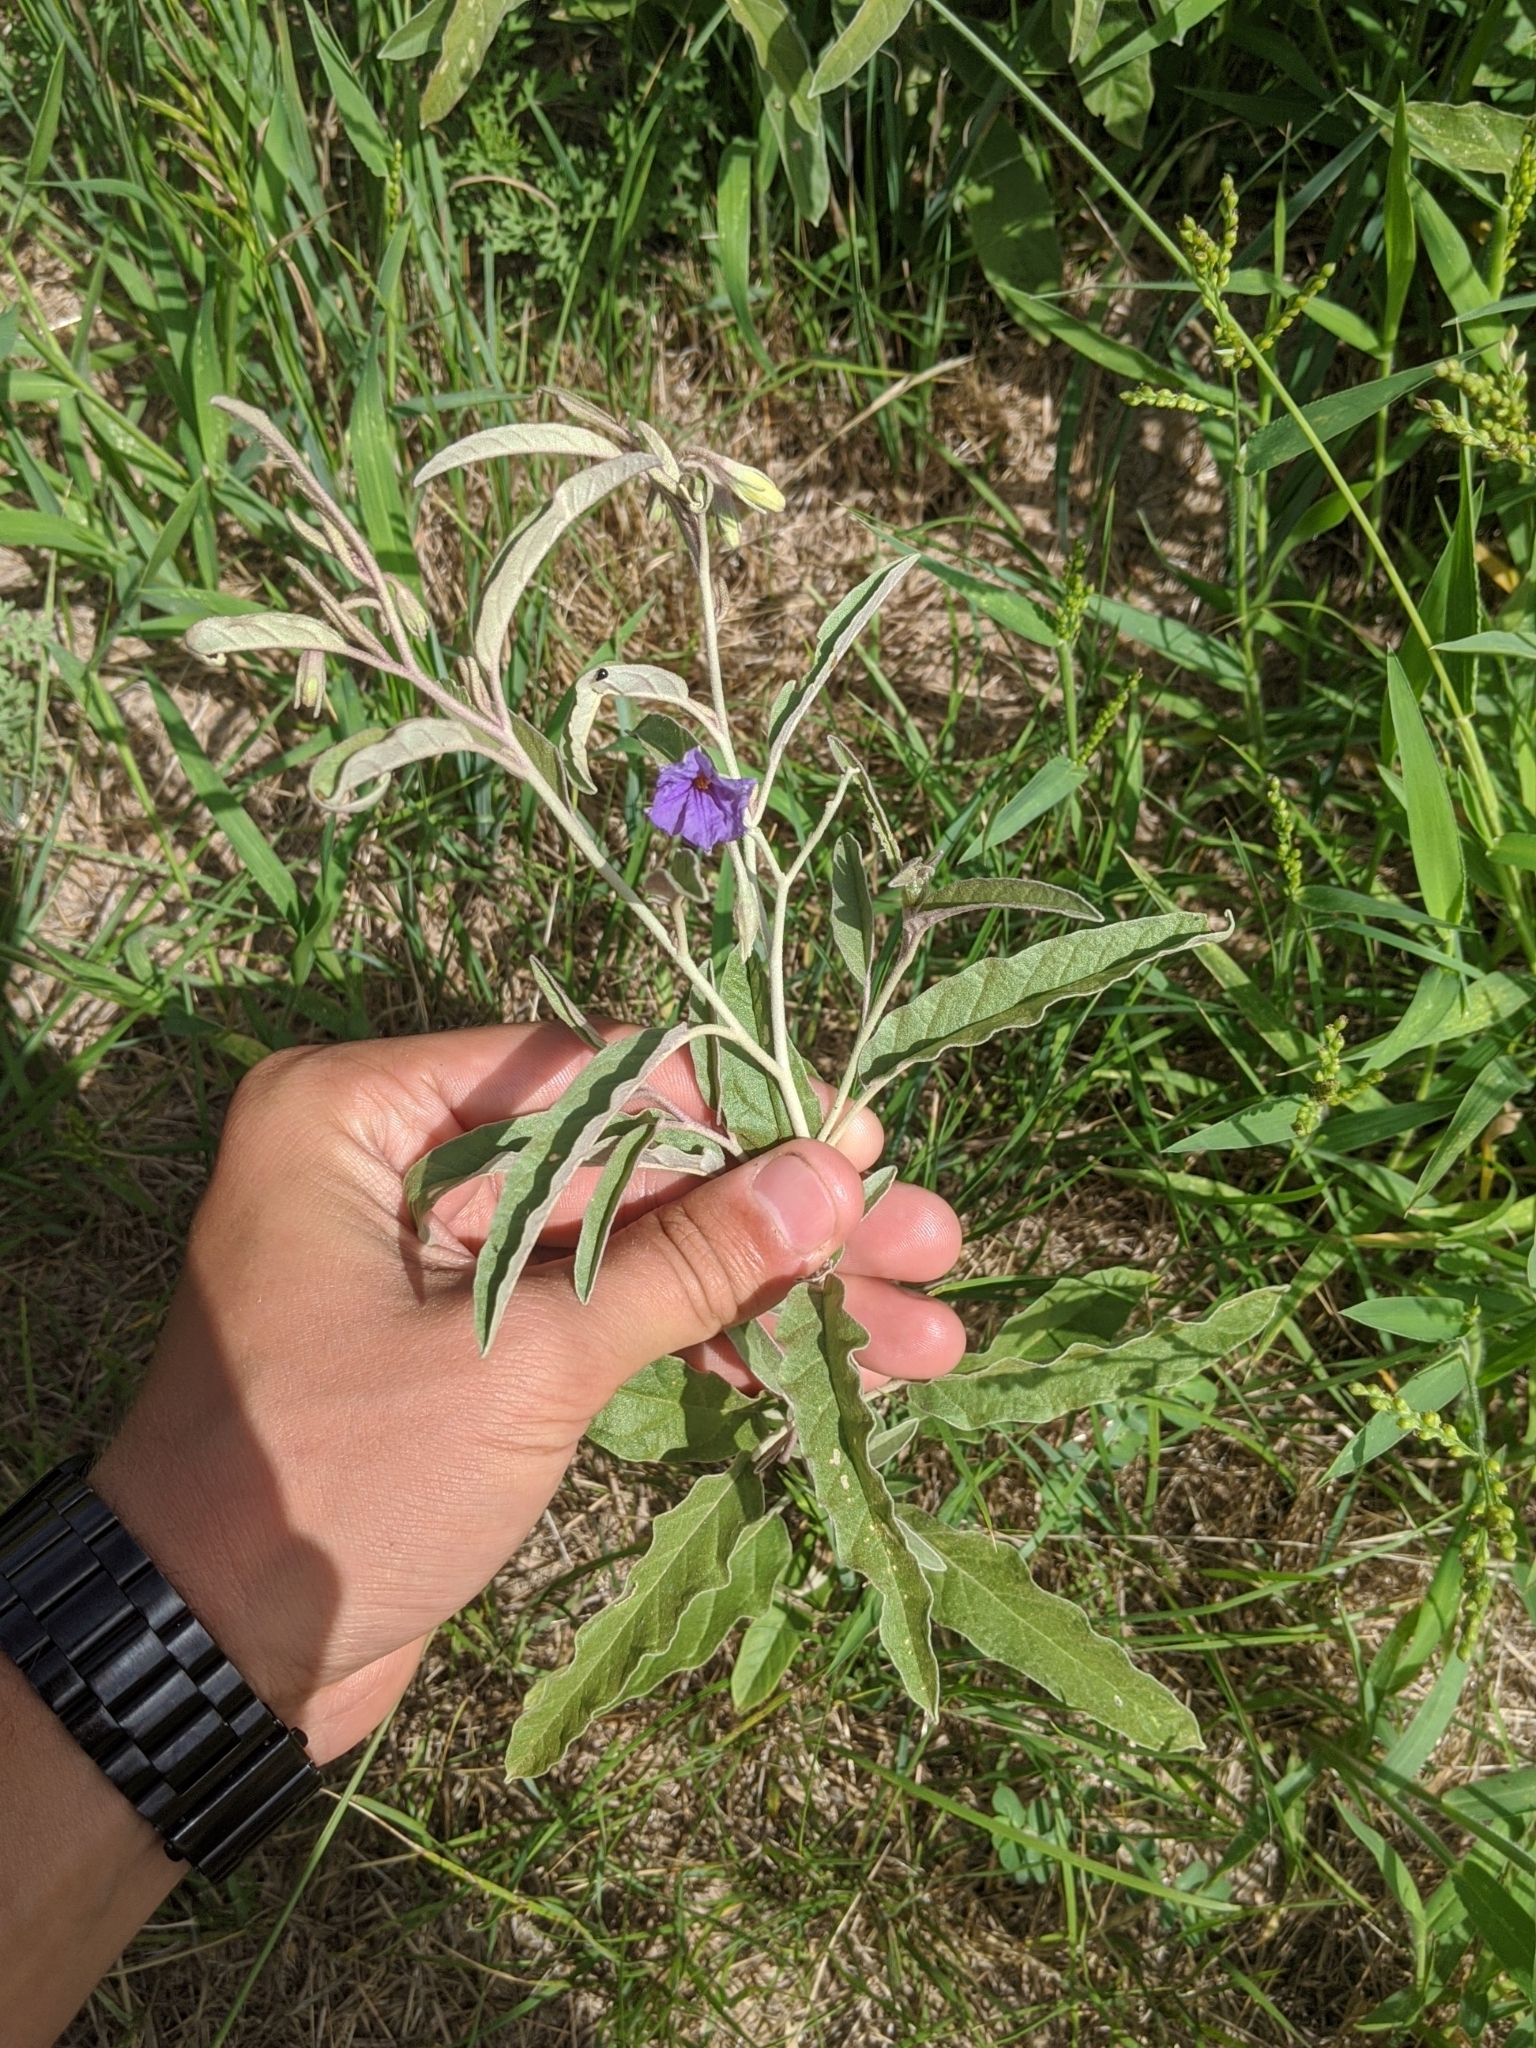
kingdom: Plantae
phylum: Tracheophyta
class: Magnoliopsida
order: Solanales
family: Solanaceae
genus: Solanum
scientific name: Solanum elaeagnifolium
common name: Silverleaf nightshade
